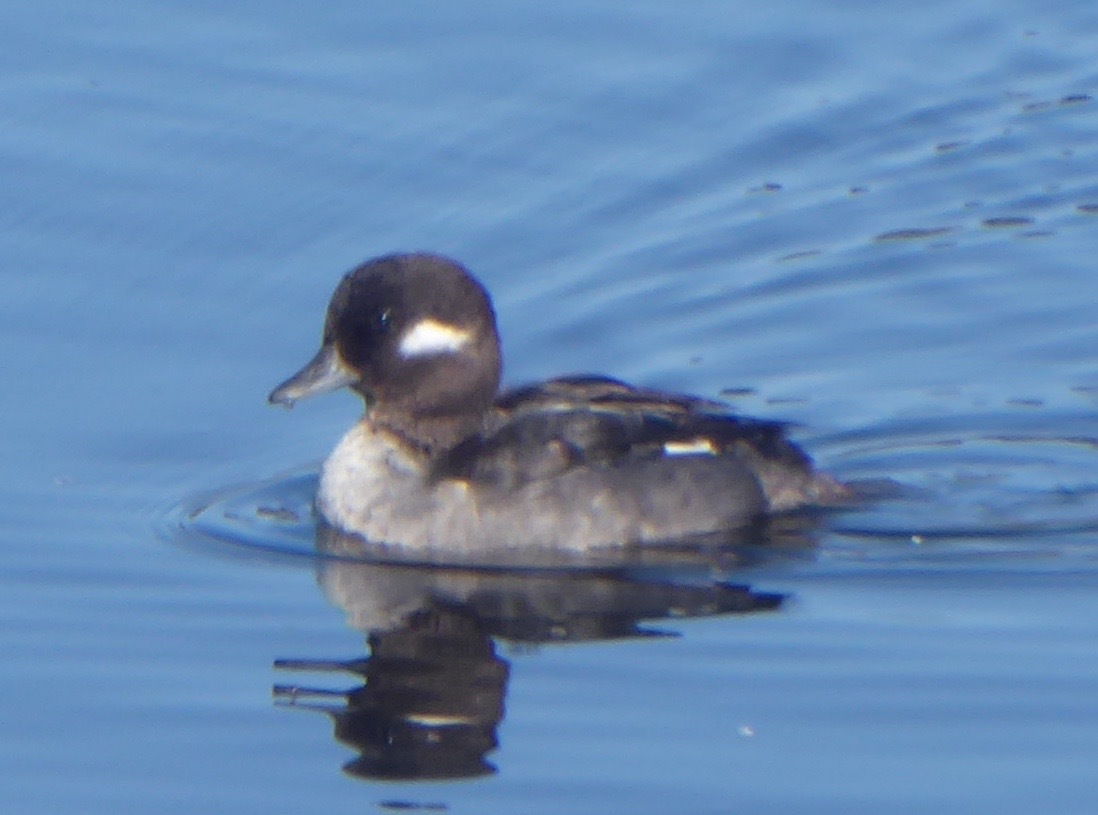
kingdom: Animalia
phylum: Chordata
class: Aves
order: Anseriformes
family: Anatidae
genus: Bucephala
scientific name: Bucephala albeola
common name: Bufflehead
